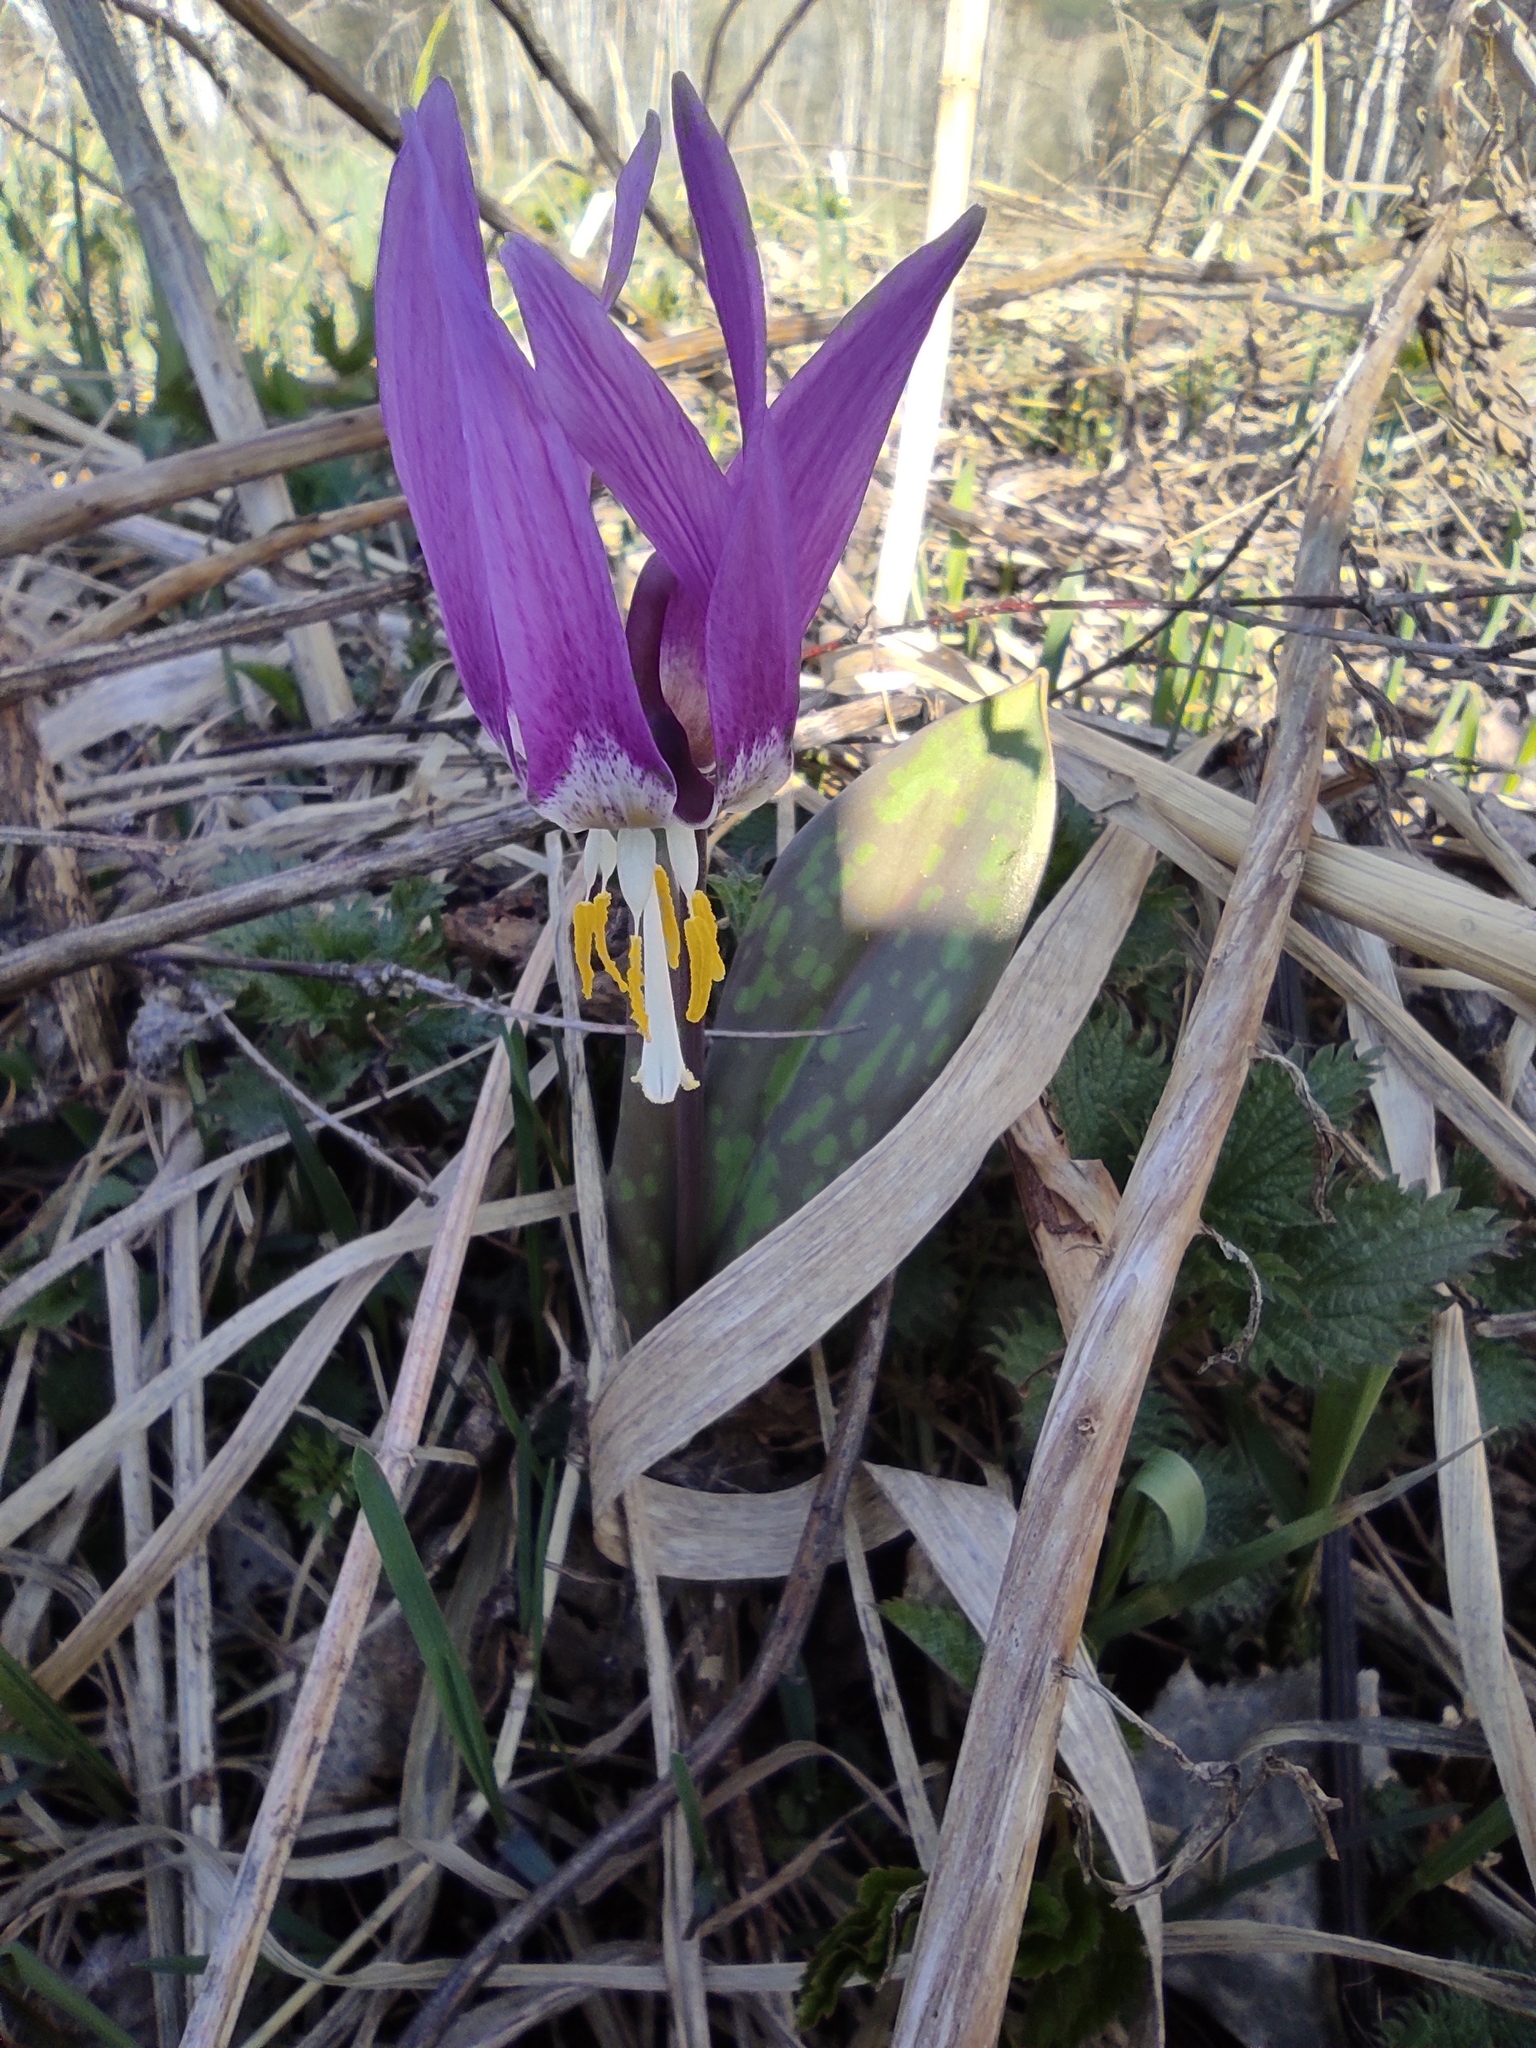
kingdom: Plantae
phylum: Tracheophyta
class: Liliopsida
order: Liliales
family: Liliaceae
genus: Erythronium
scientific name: Erythronium sibiricum
